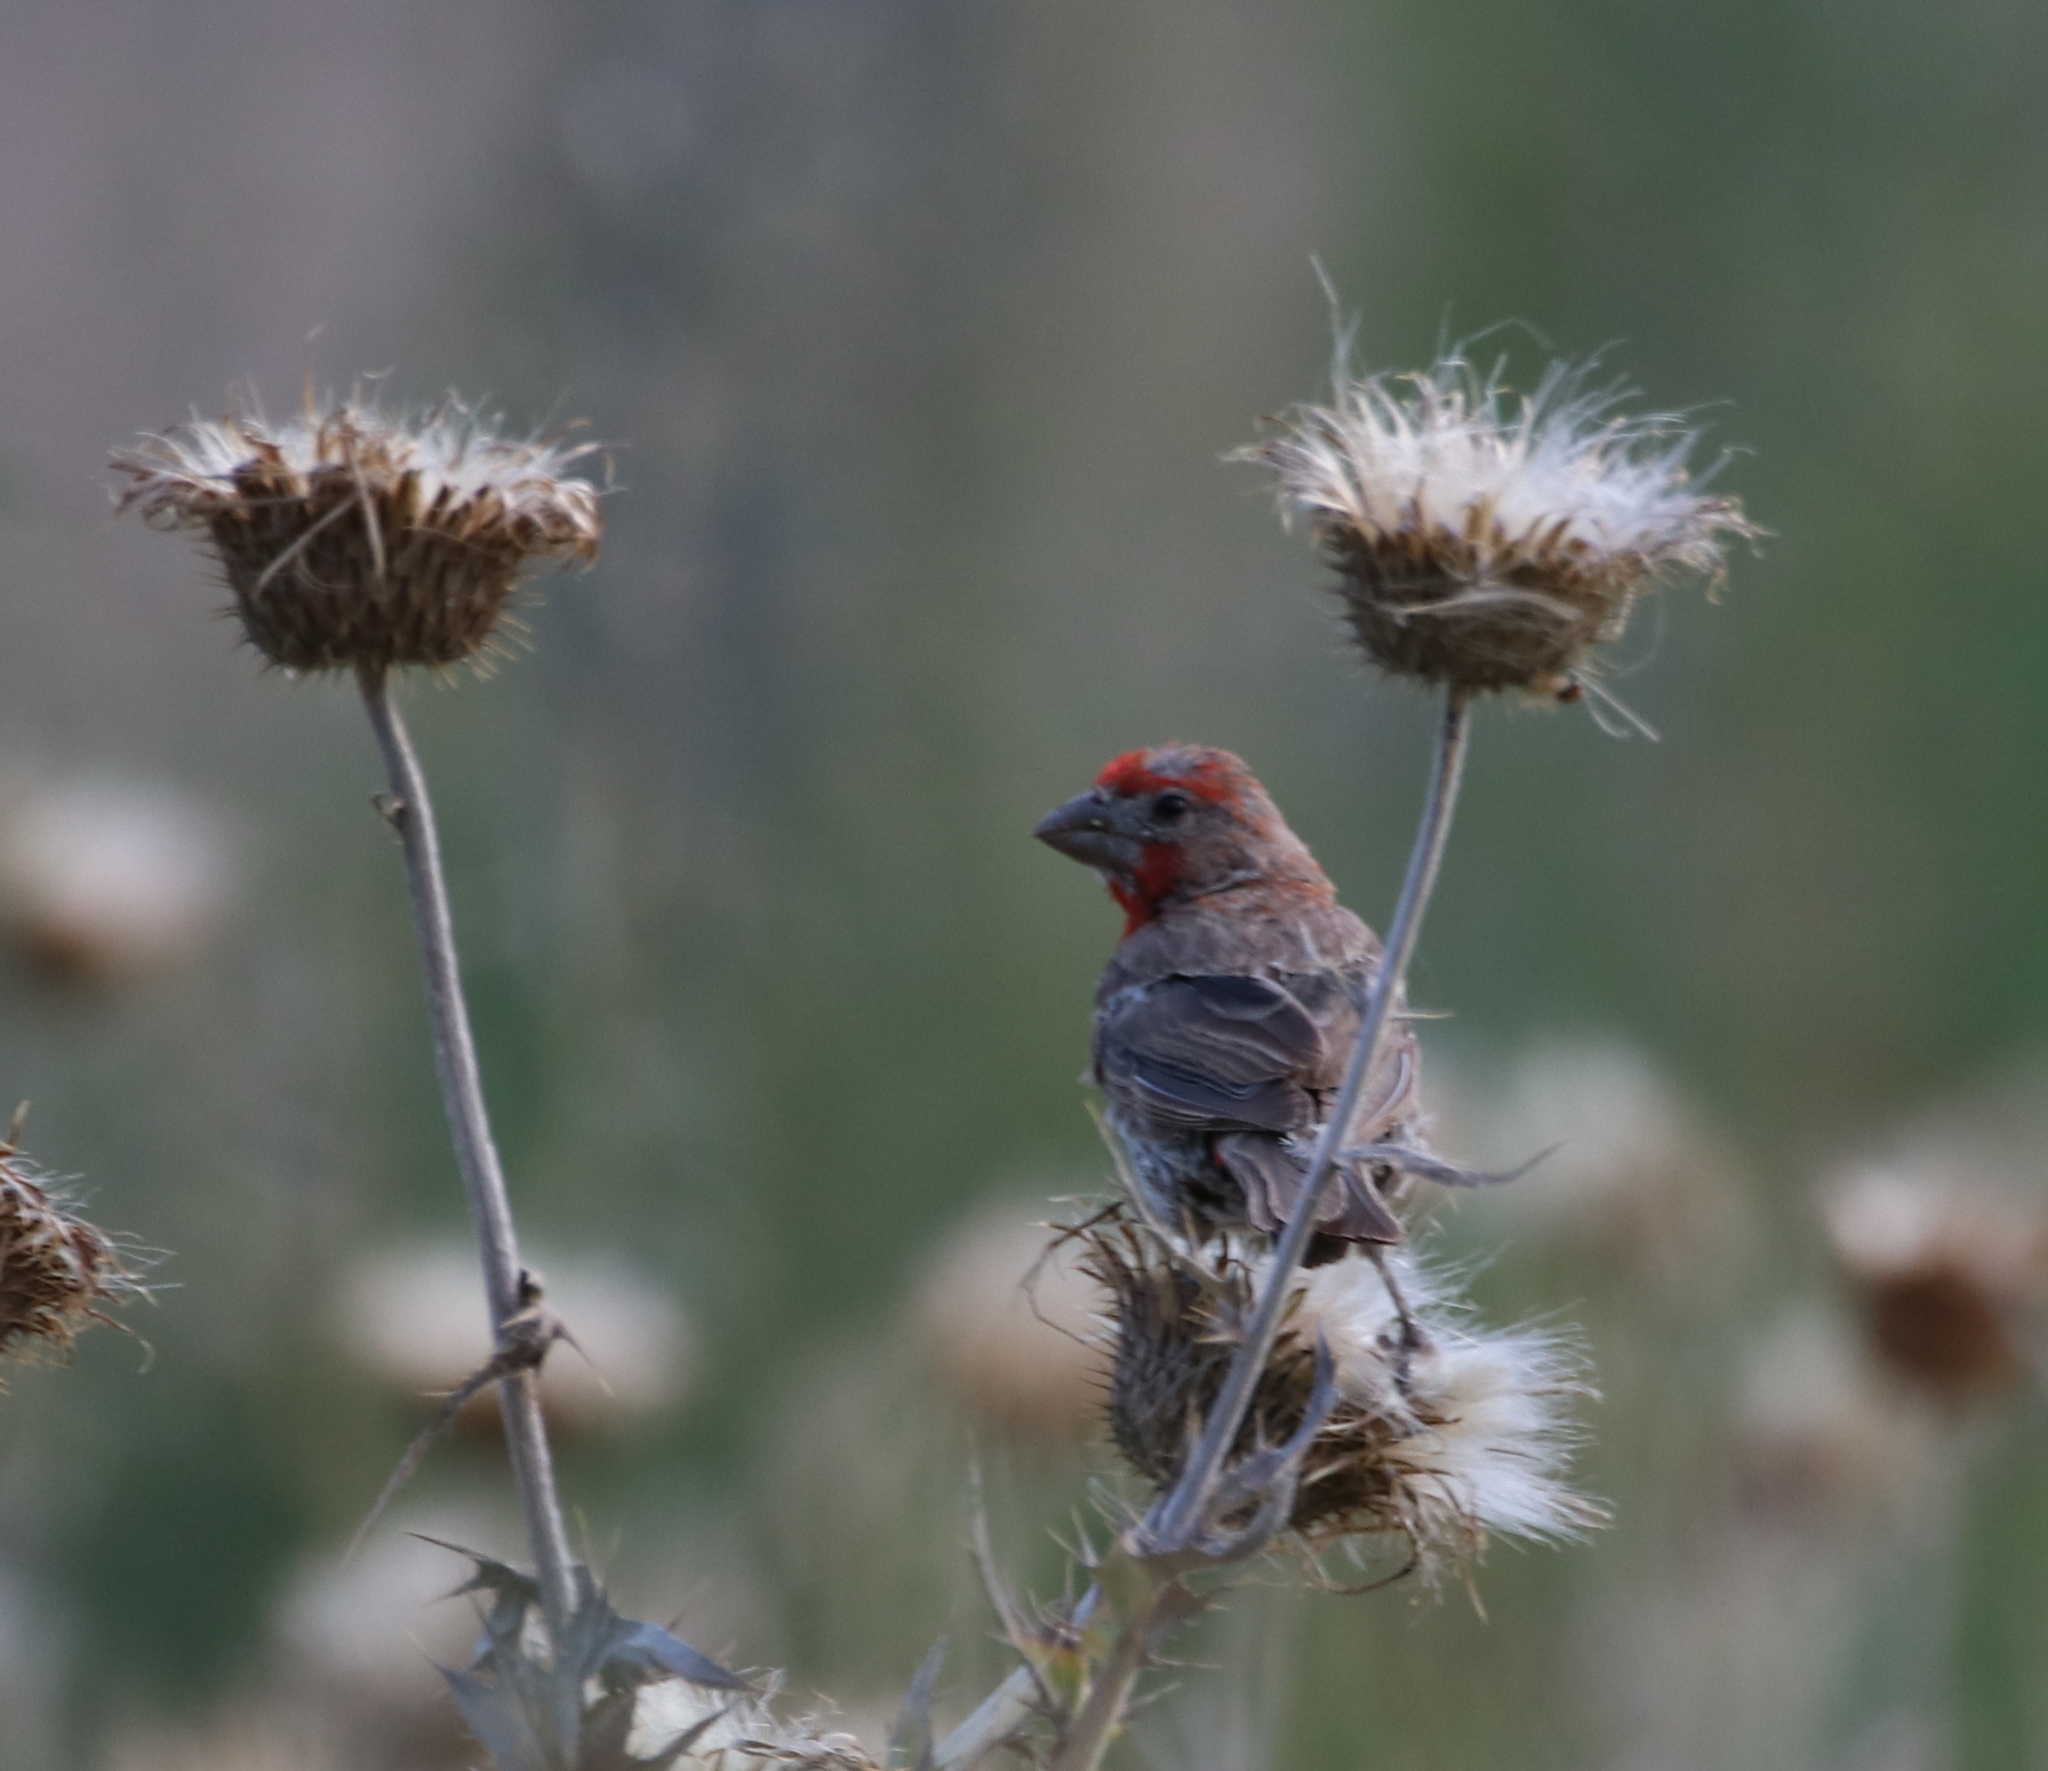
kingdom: Animalia
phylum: Chordata
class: Aves
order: Passeriformes
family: Fringillidae
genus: Haemorhous
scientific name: Haemorhous mexicanus
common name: House finch
